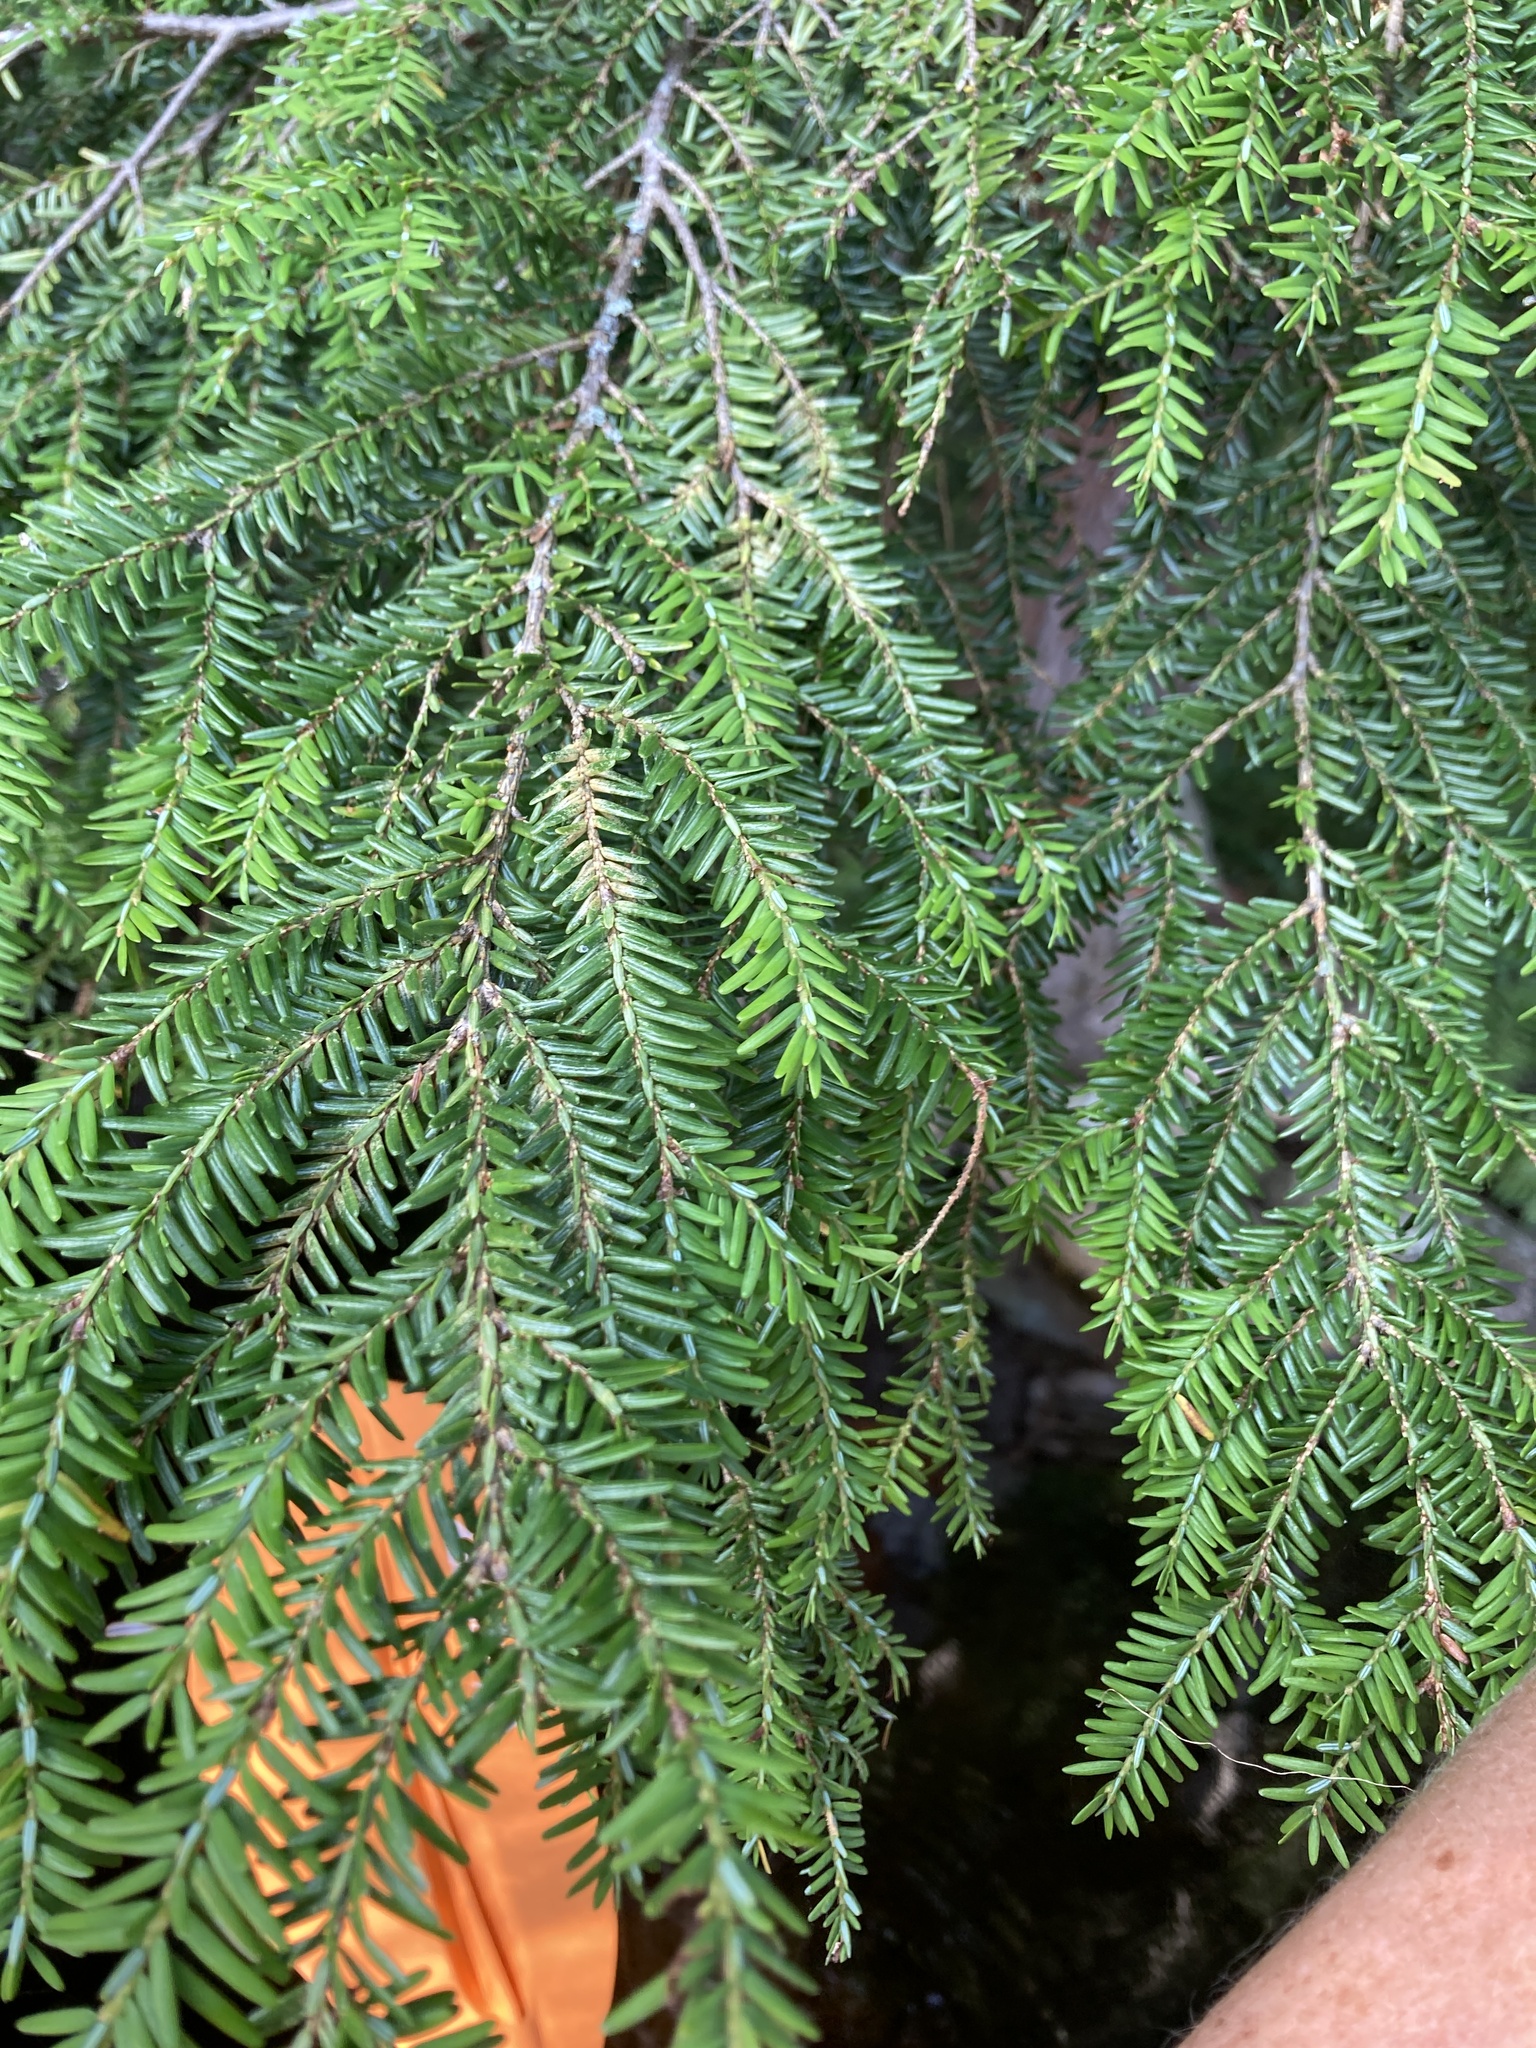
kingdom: Plantae
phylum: Tracheophyta
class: Pinopsida
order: Pinales
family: Pinaceae
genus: Tsuga
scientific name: Tsuga canadensis
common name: Eastern hemlock
